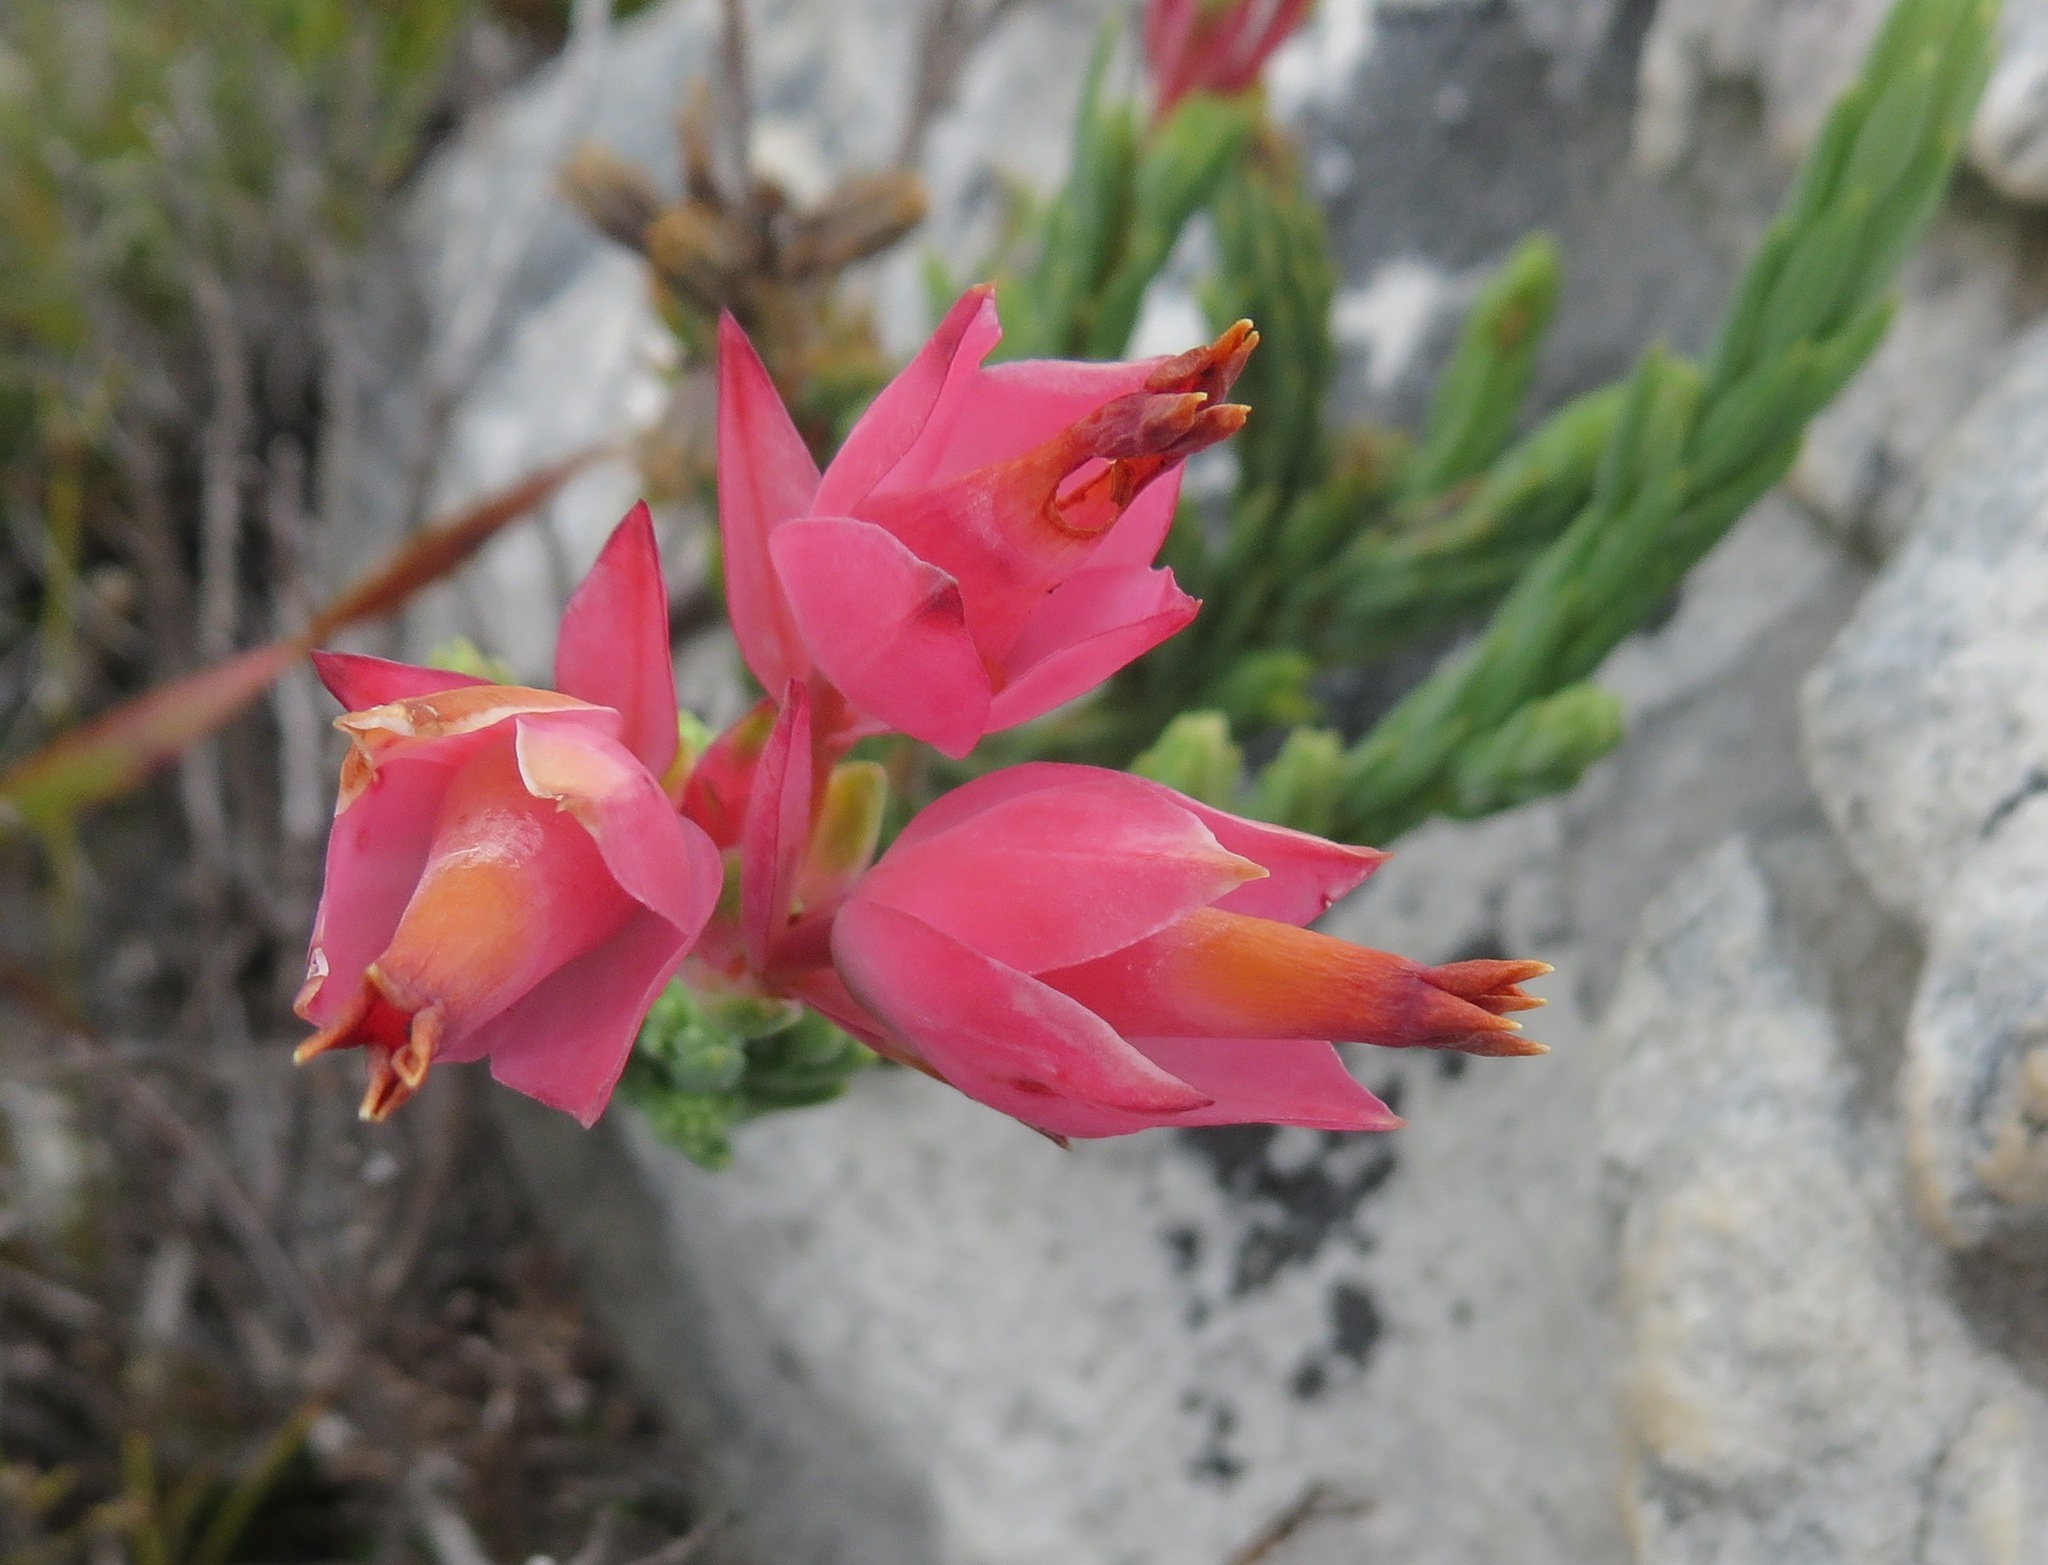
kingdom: Plantae
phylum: Tracheophyta
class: Magnoliopsida
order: Ericales
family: Ericaceae
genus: Erica
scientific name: Erica alfredii
